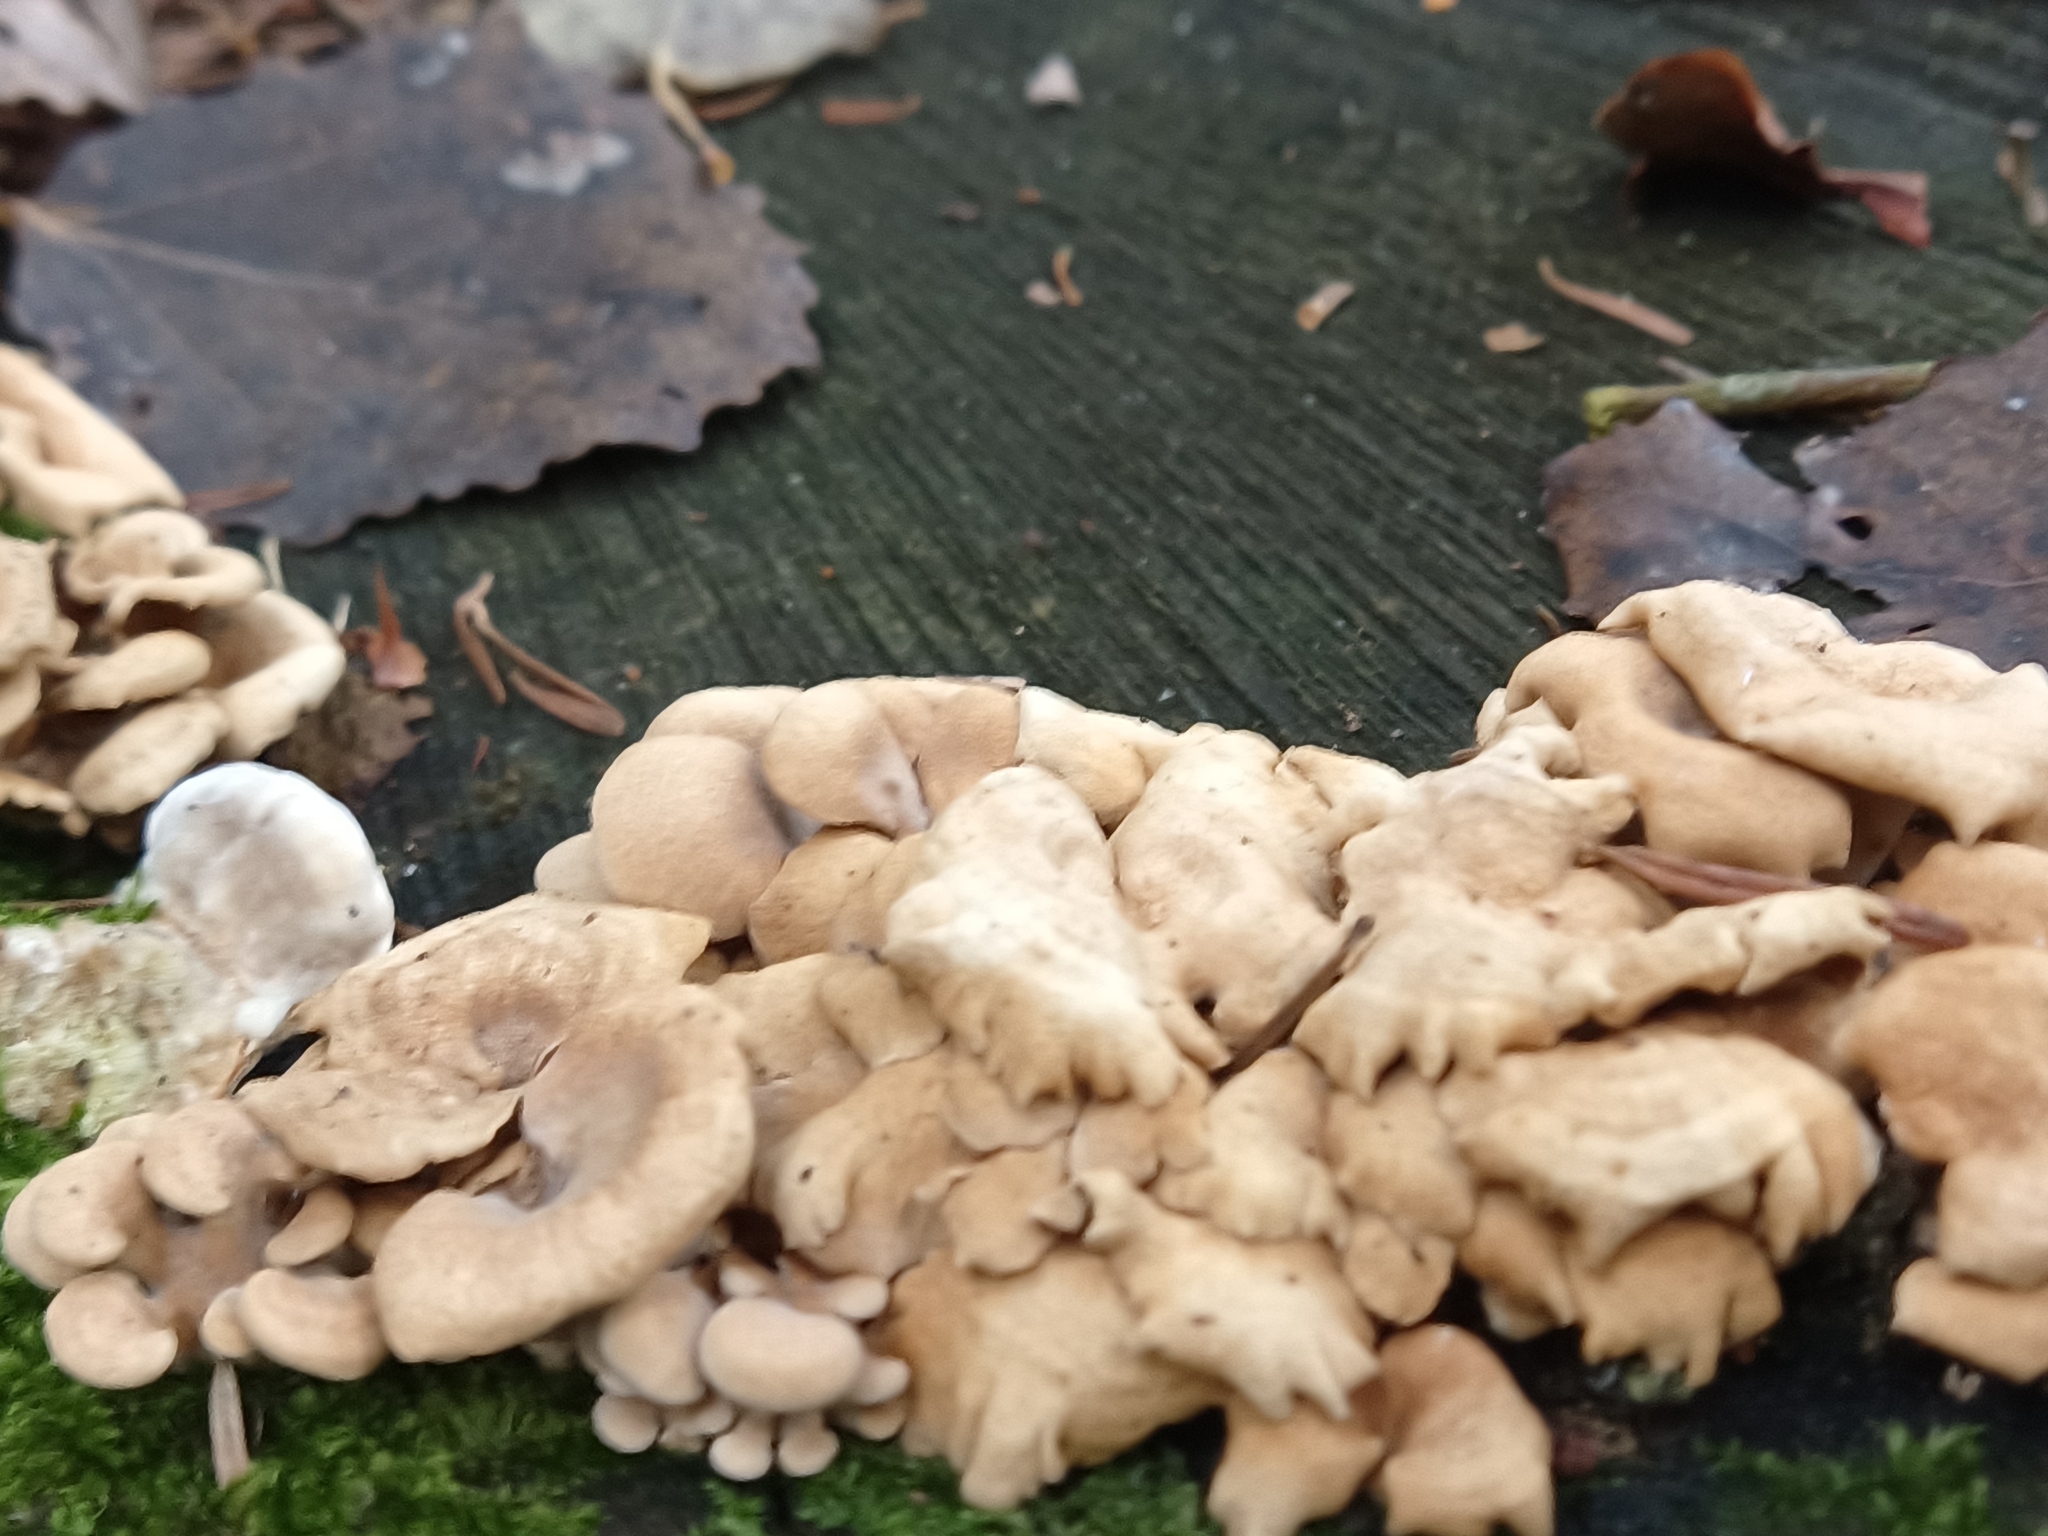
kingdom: Fungi
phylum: Basidiomycota
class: Agaricomycetes
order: Agaricales
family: Mycenaceae
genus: Panellus
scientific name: Panellus stipticus
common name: Bitter oysterling
